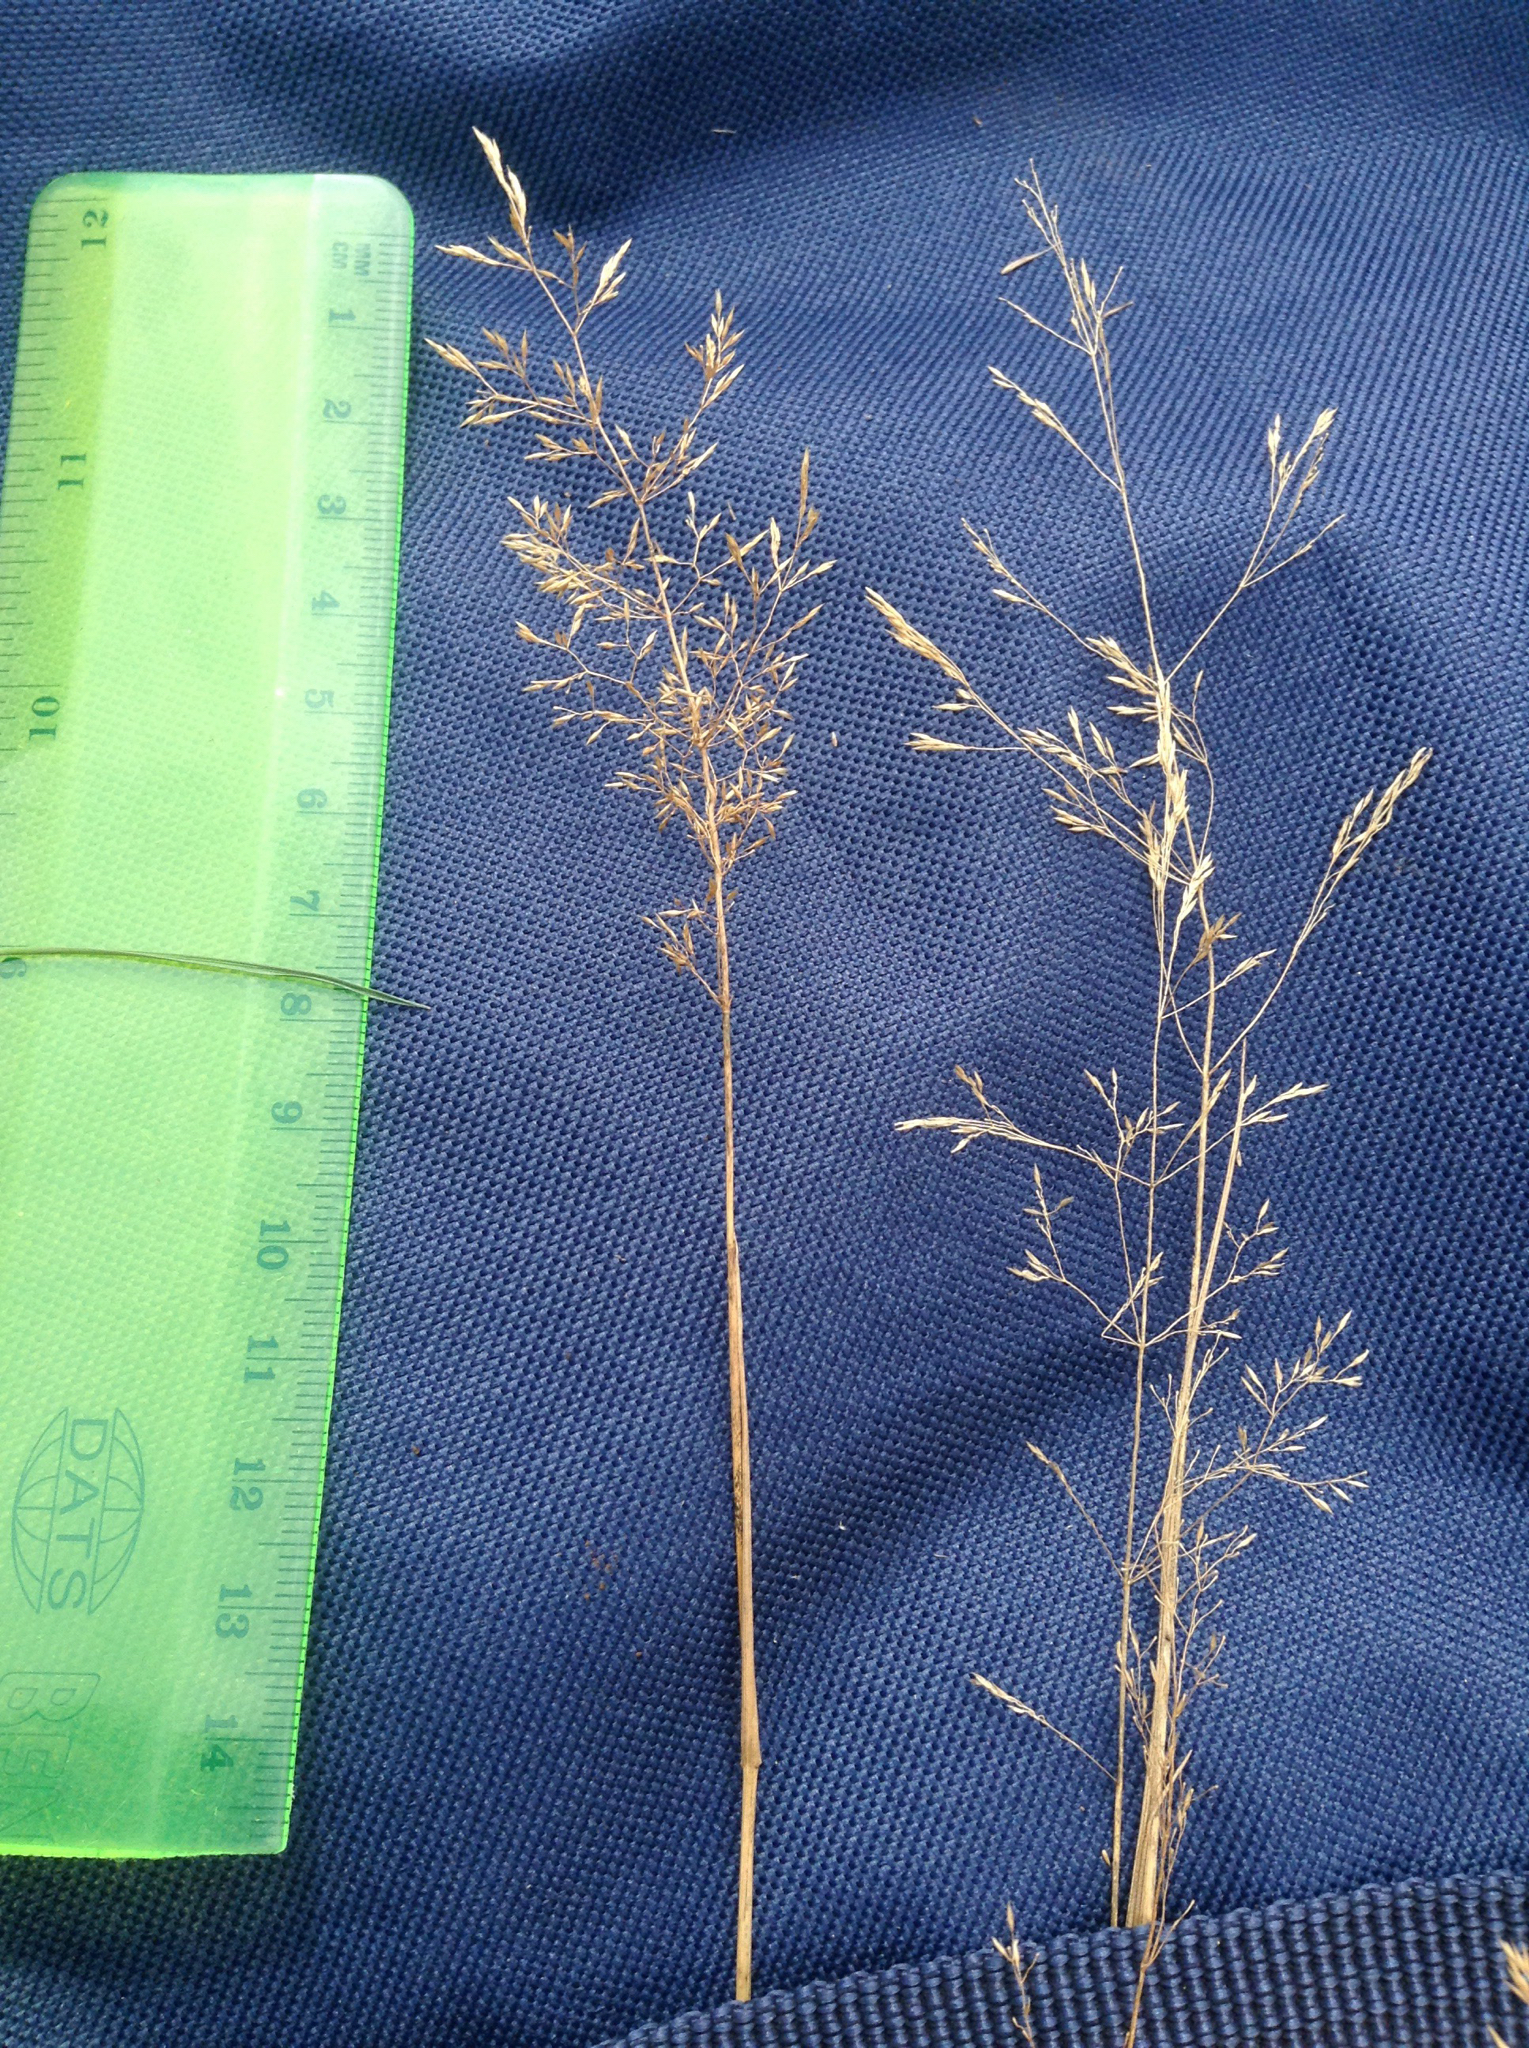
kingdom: Plantae
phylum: Tracheophyta
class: Liliopsida
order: Poales
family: Poaceae
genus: Agrostis
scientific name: Agrostis capillaris
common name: Colonial bentgrass
